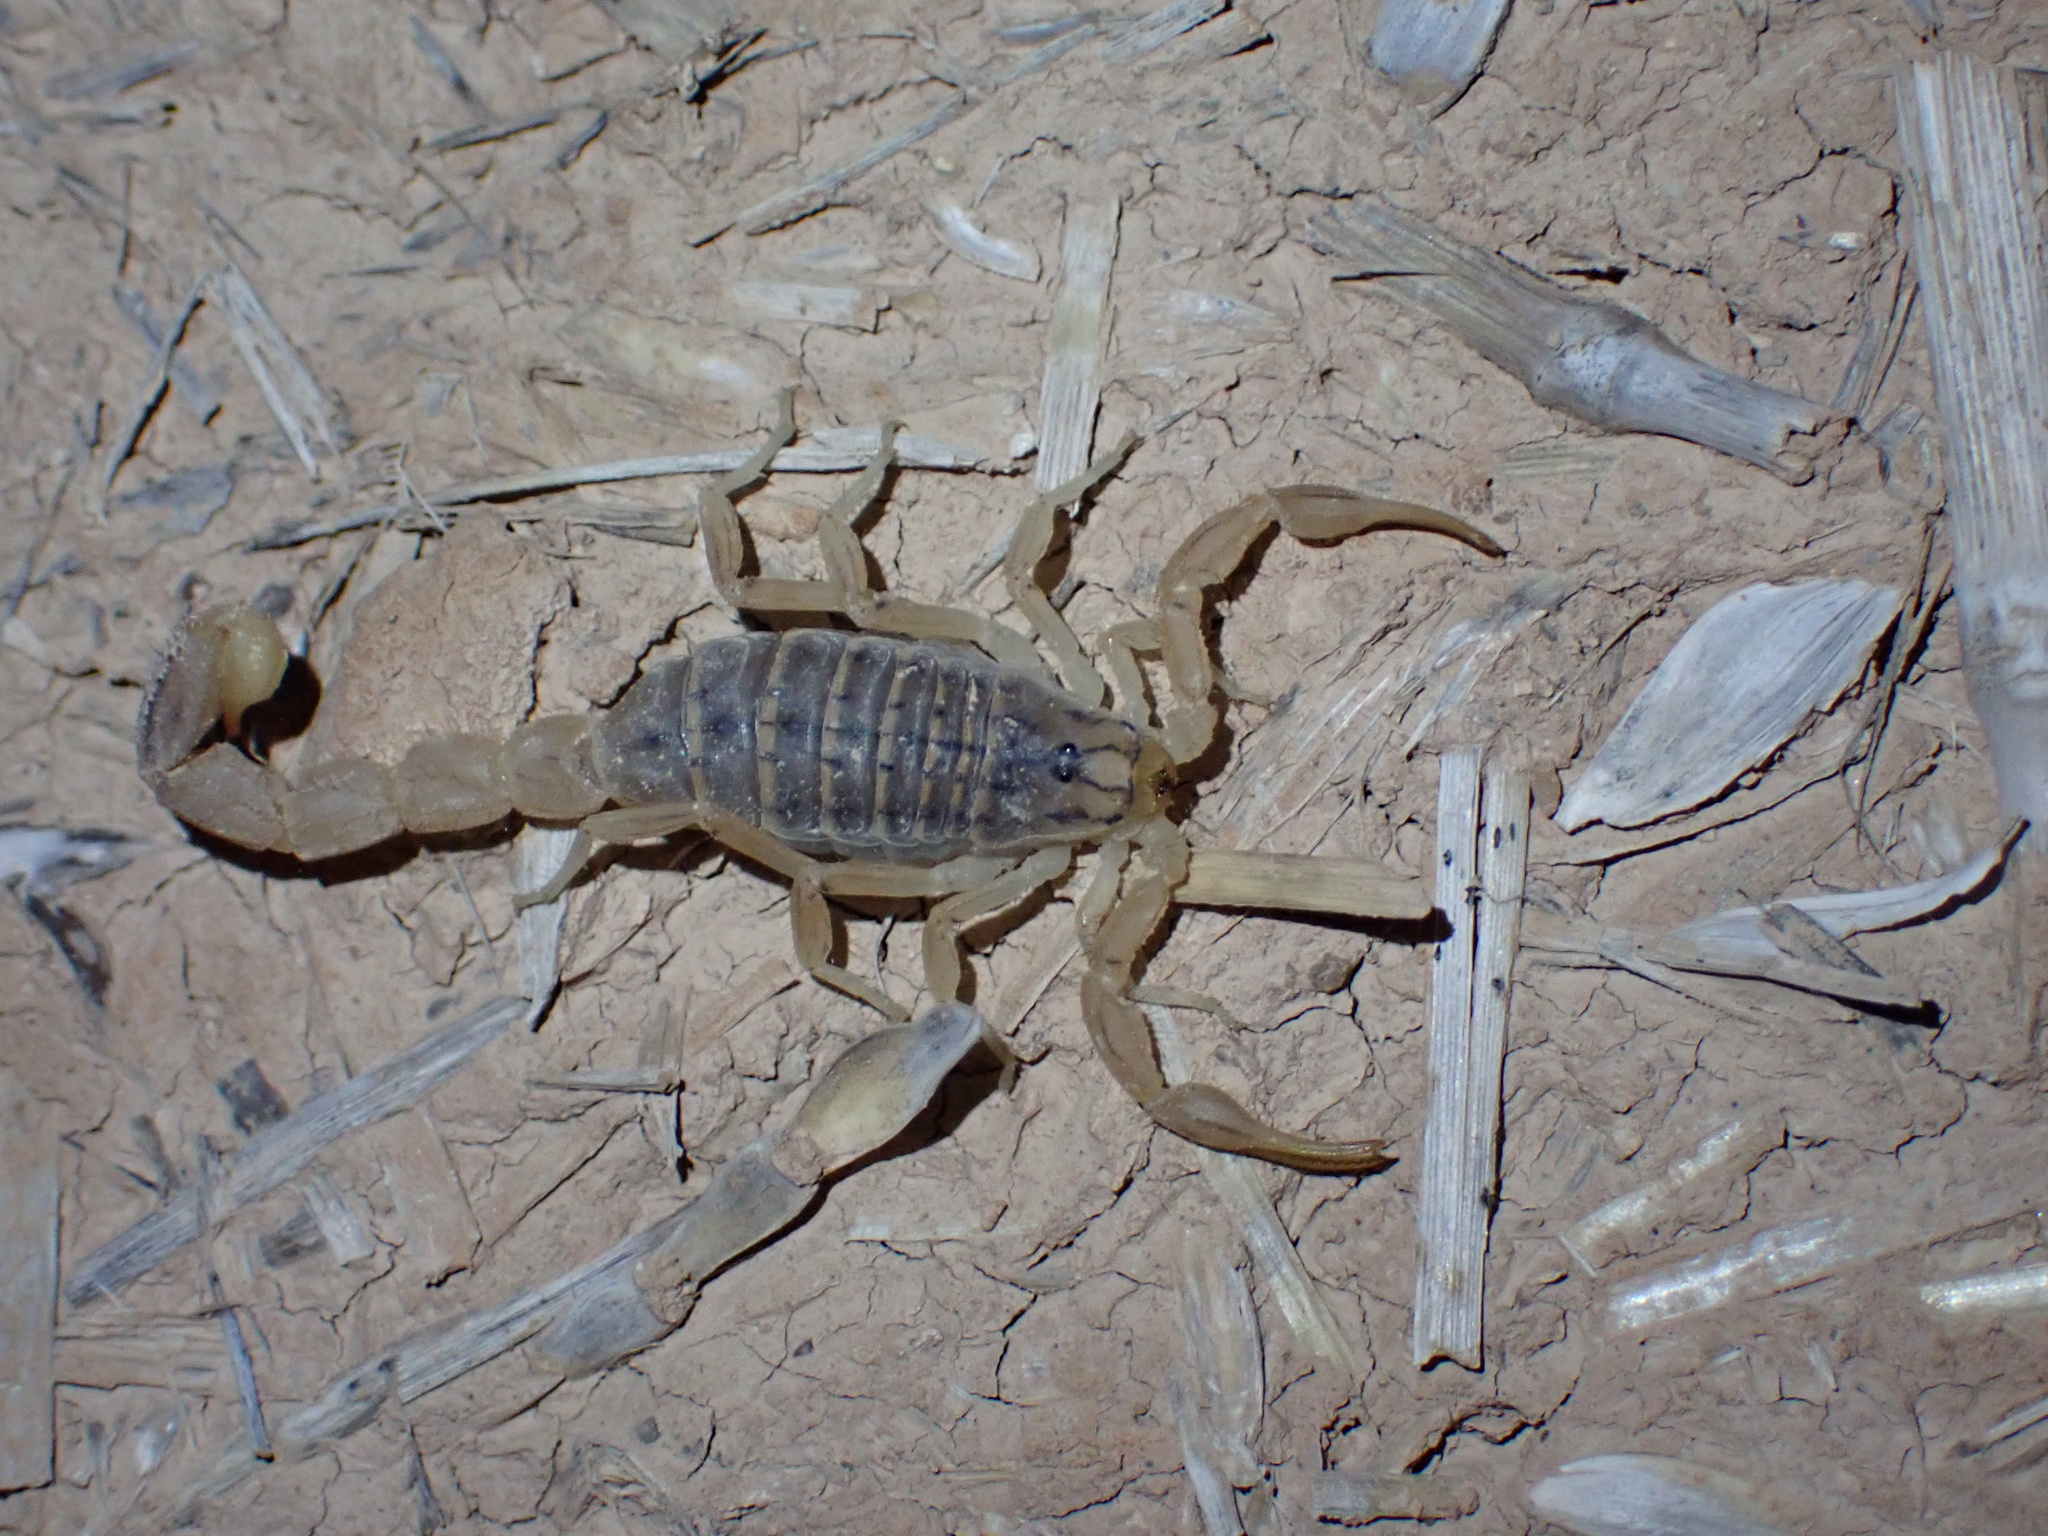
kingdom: Animalia
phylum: Arthropoda
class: Arachnida
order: Scorpiones
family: Buthidae
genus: Mesobuthus
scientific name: Mesobuthus crucittii
